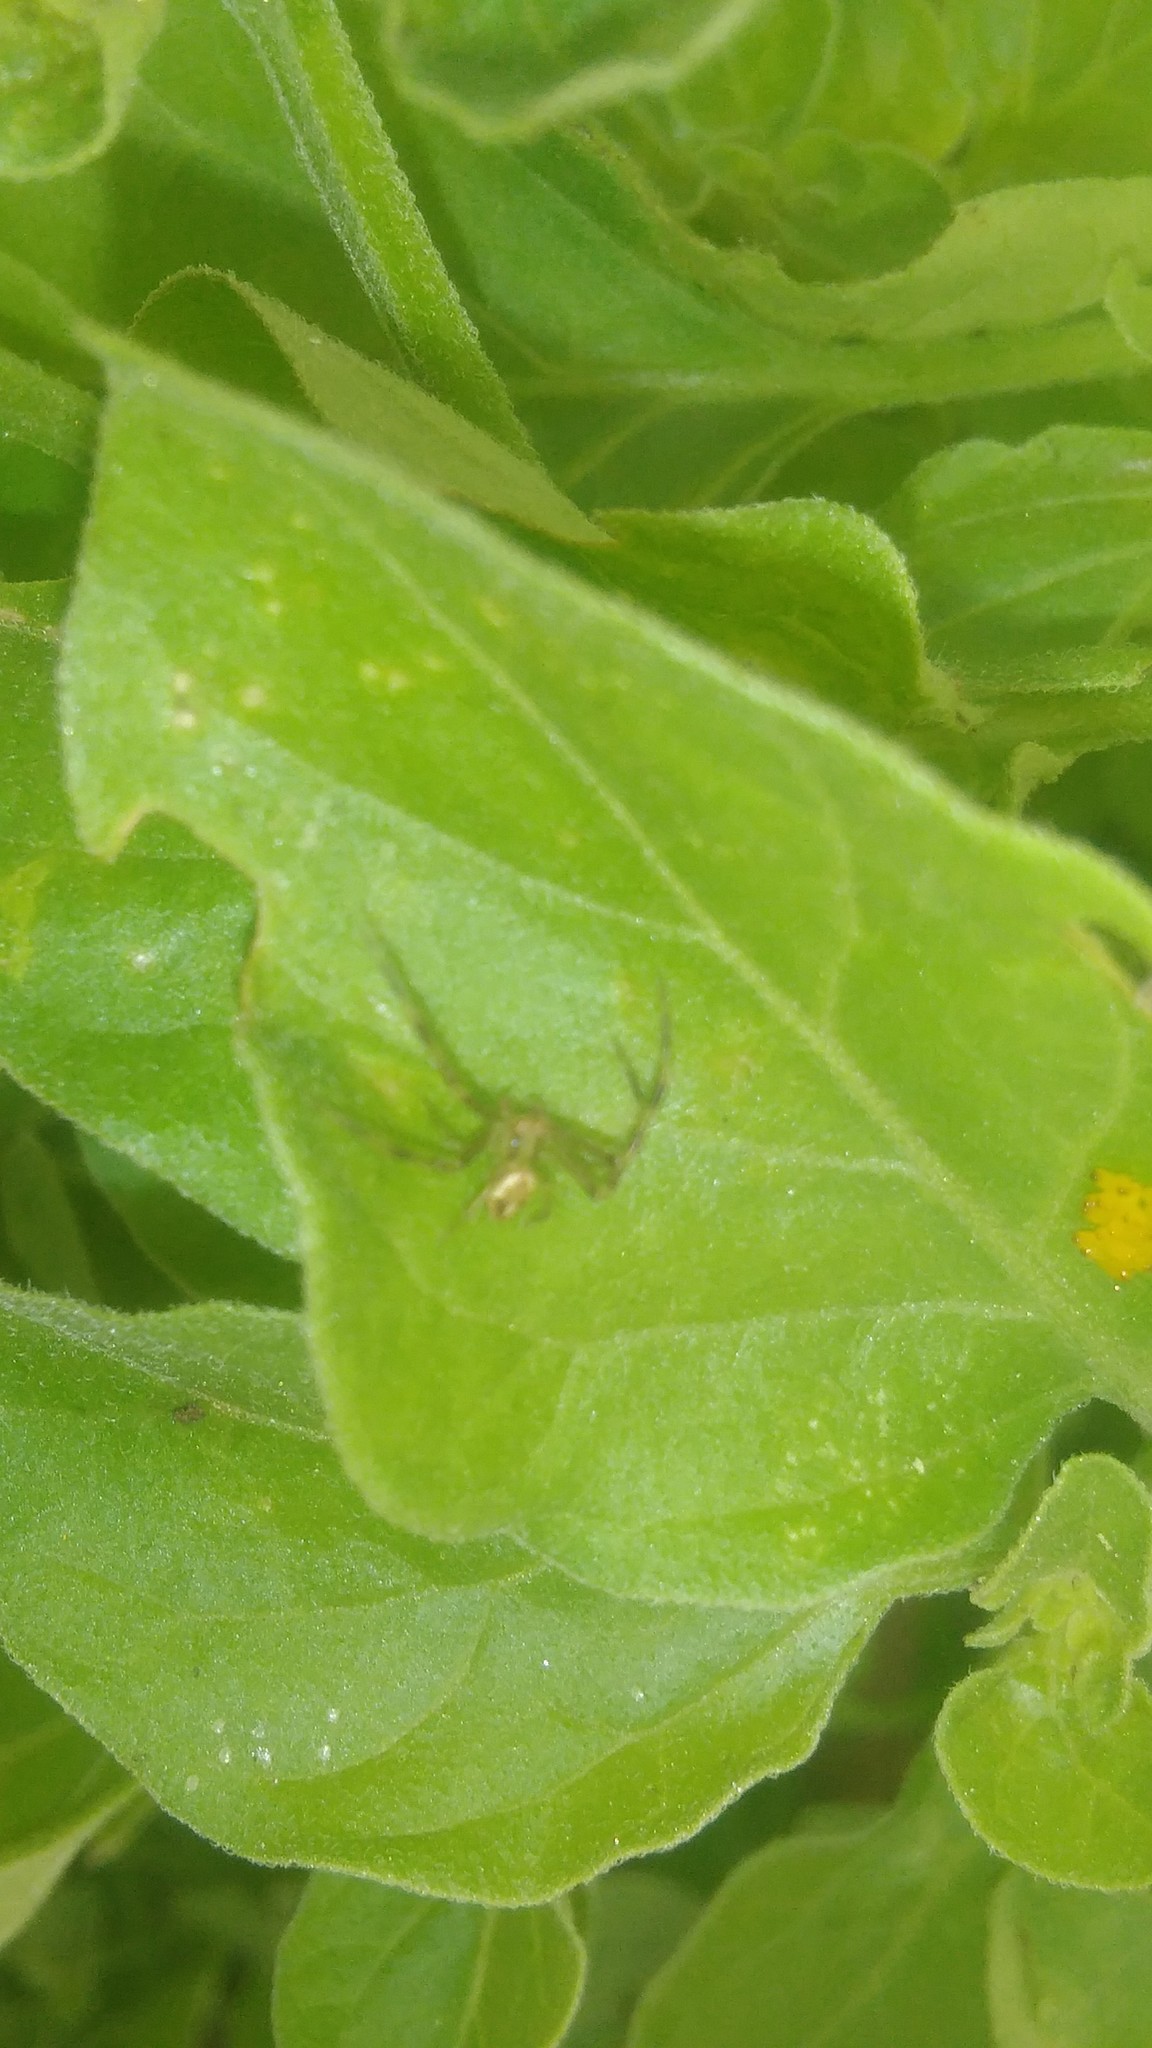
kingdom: Animalia
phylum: Arthropoda
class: Arachnida
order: Araneae
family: Thomisidae
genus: Misumenops
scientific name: Misumenops
